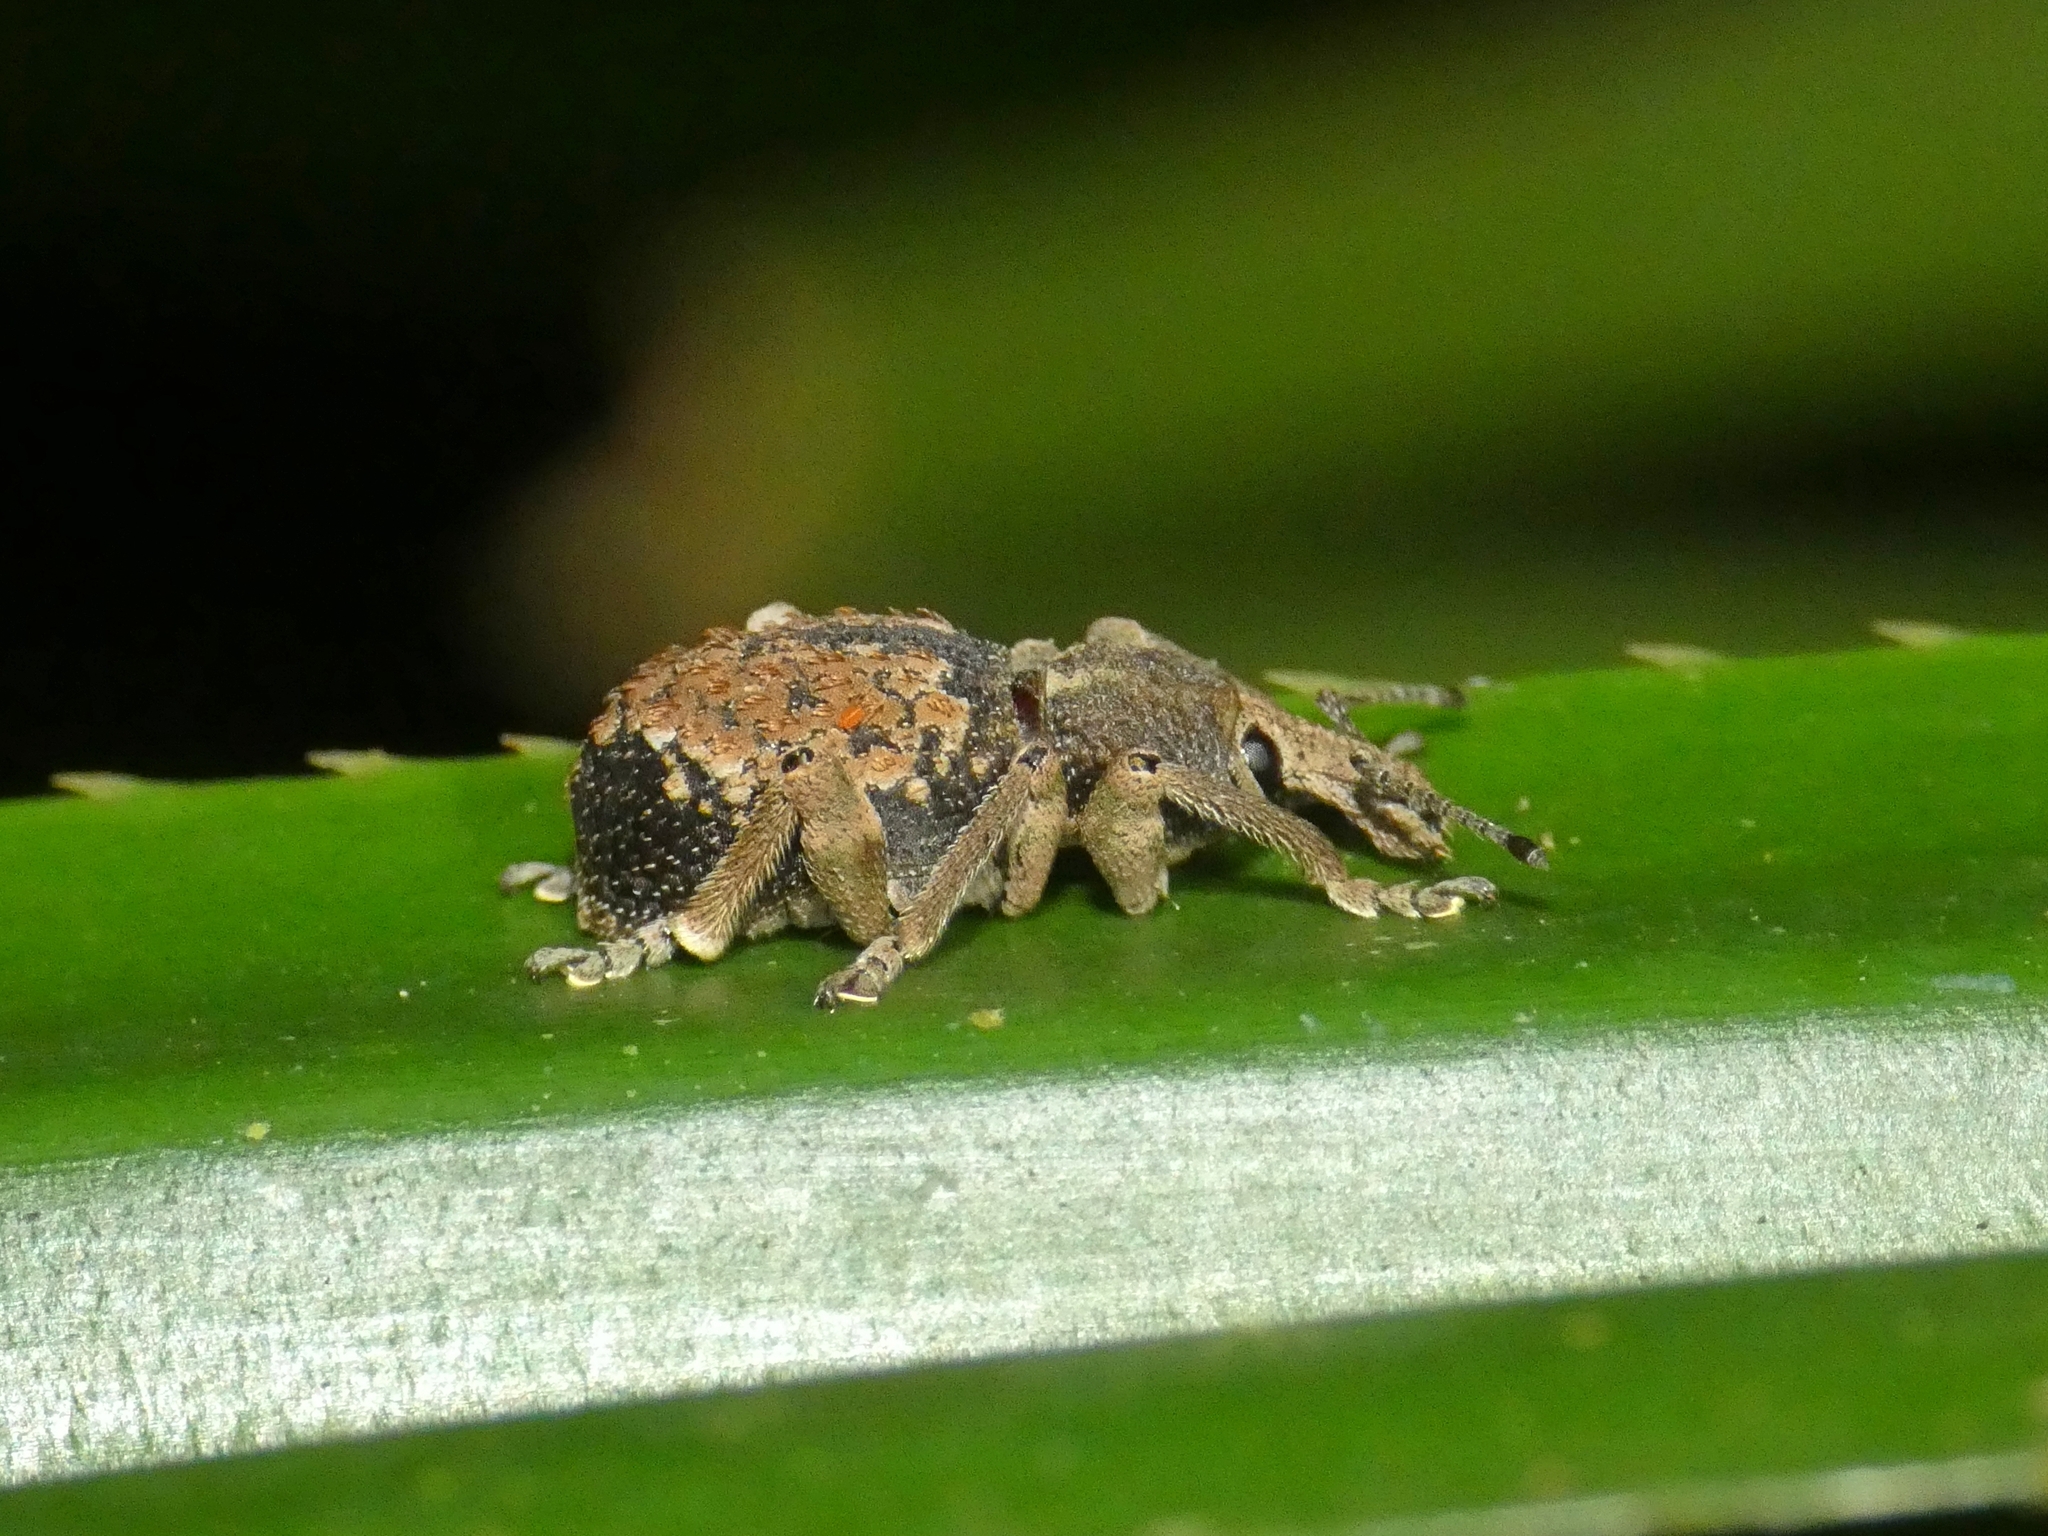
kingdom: Animalia
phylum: Arthropoda
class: Insecta
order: Coleoptera
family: Curculionidae
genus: Leptopius
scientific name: Leptopius fasciculatus
